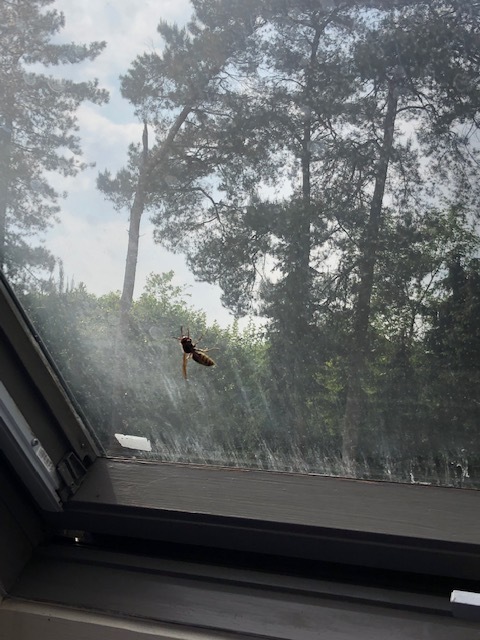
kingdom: Animalia
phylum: Arthropoda
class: Insecta
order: Hymenoptera
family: Vespidae
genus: Vespa
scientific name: Vespa crabro
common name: Hornet
